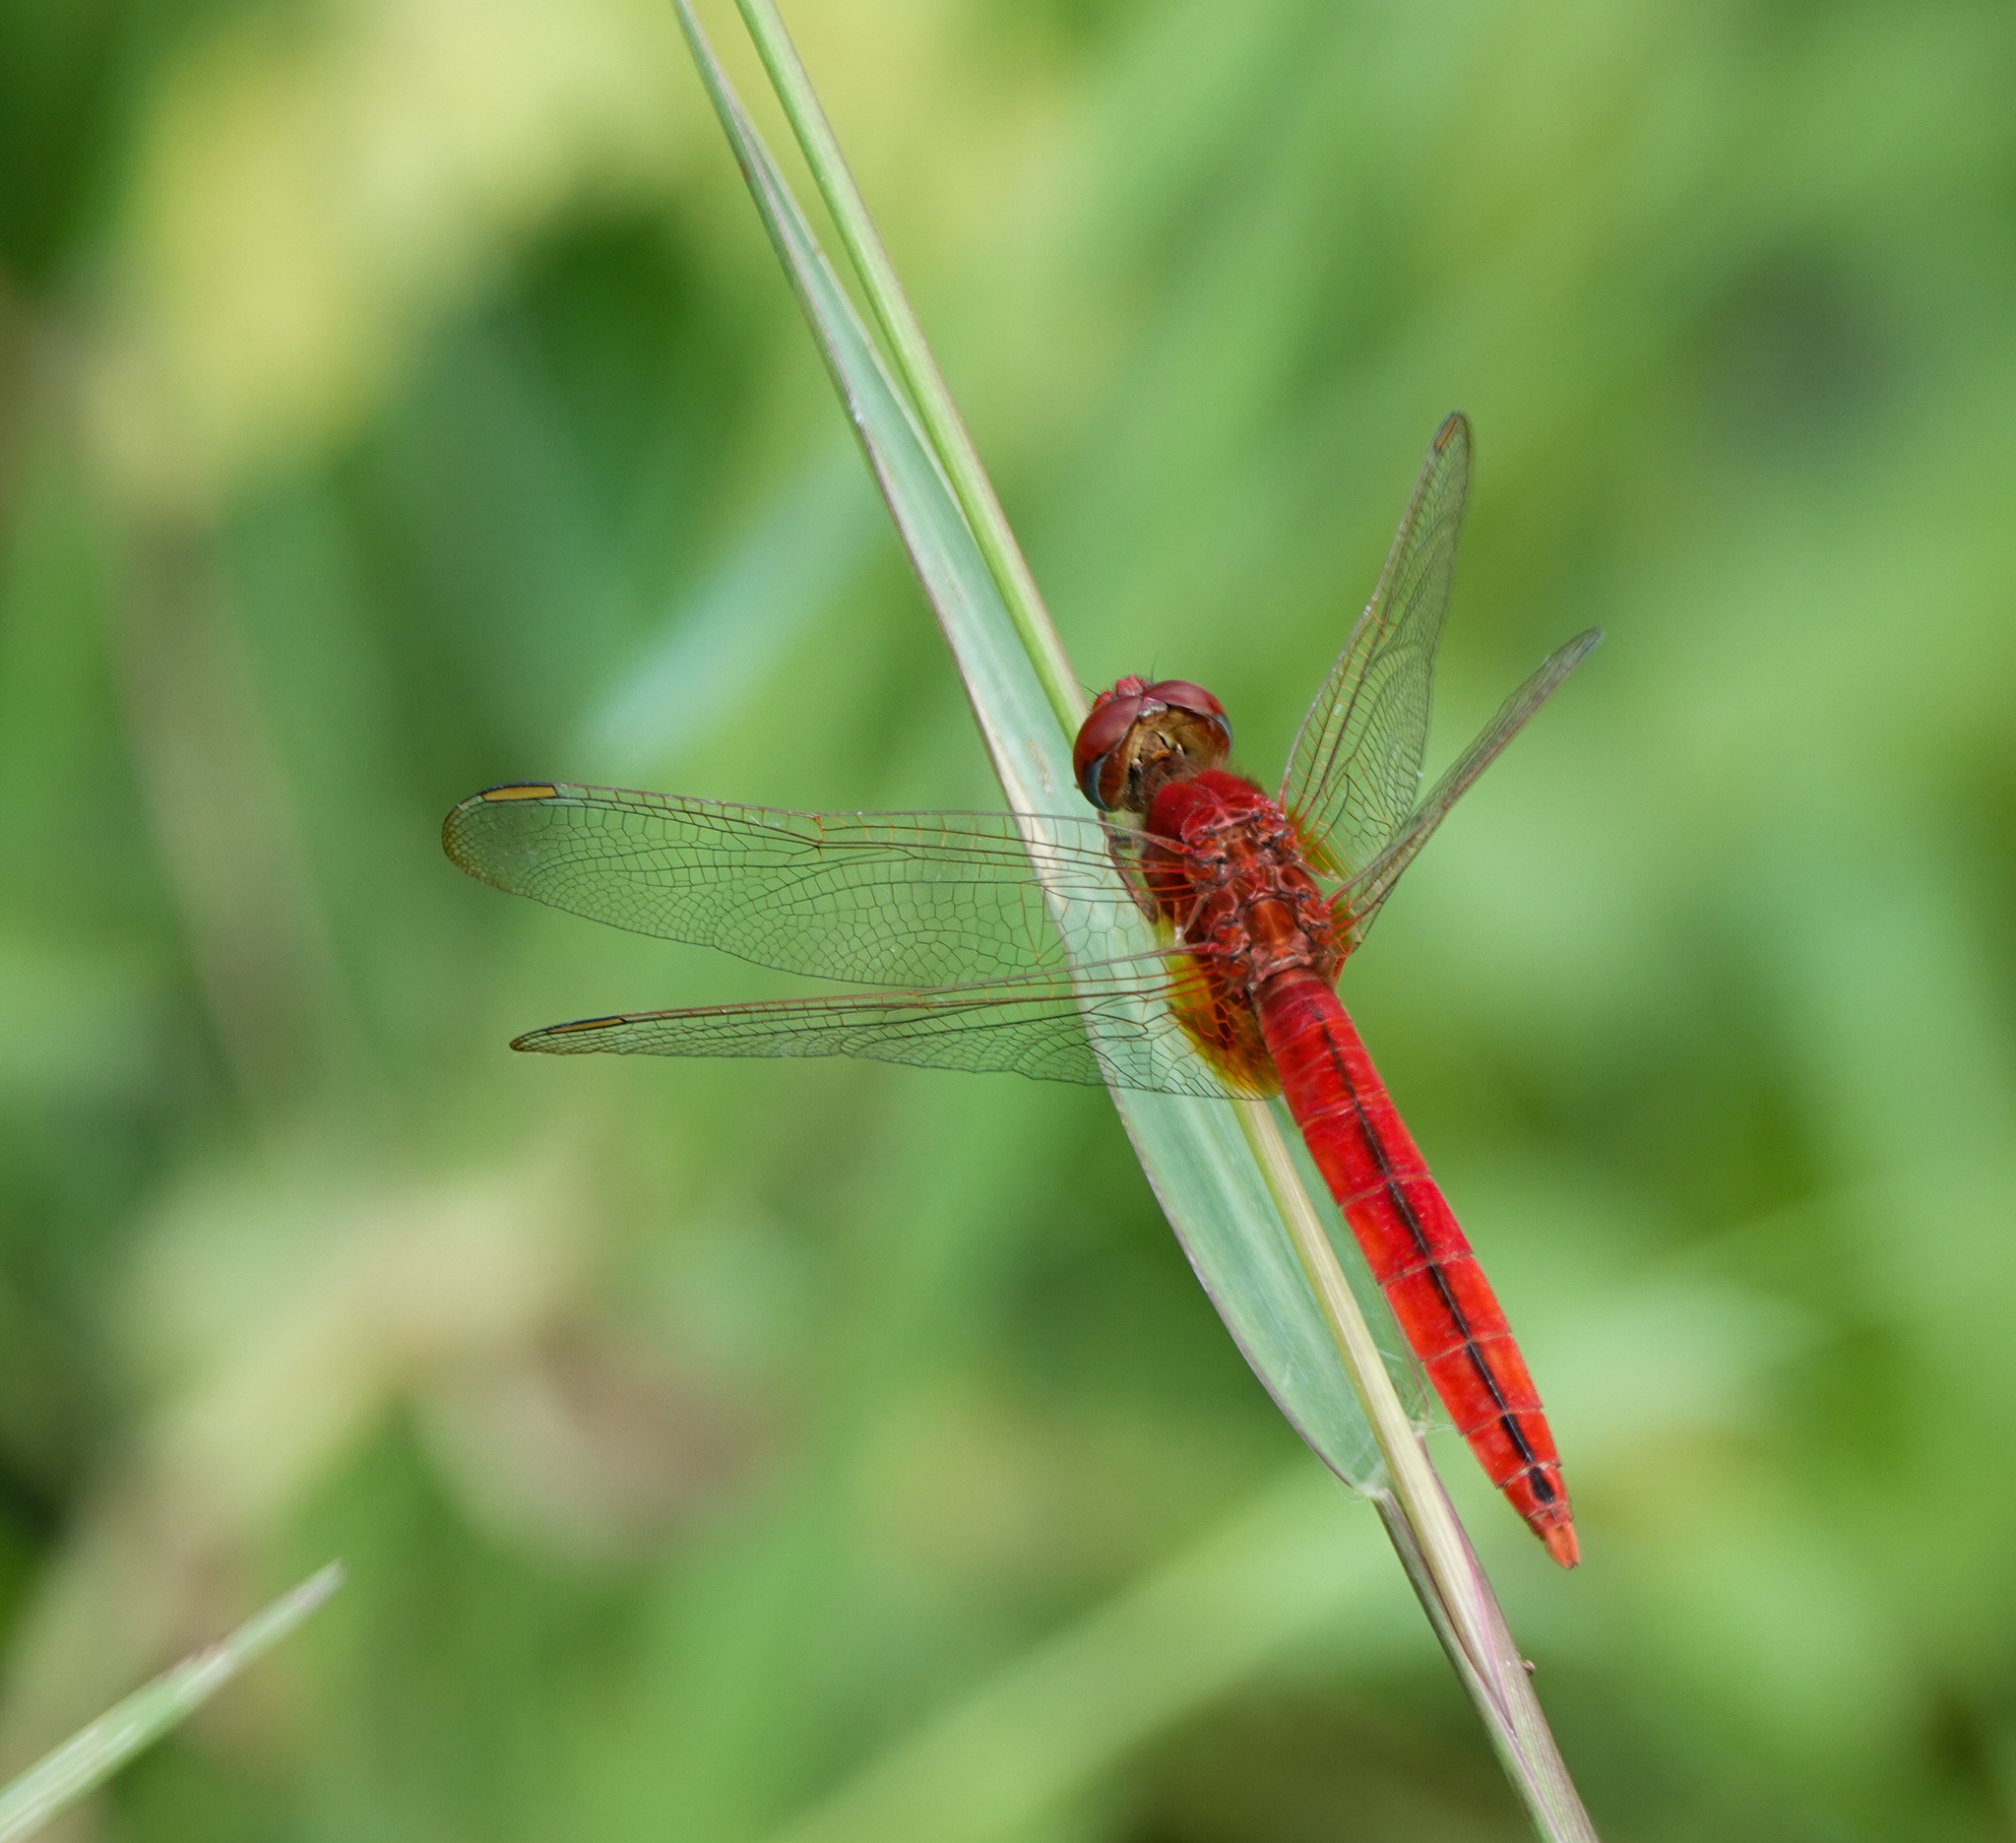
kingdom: Animalia
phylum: Arthropoda
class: Insecta
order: Odonata
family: Libellulidae
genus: Crocothemis
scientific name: Crocothemis servilia
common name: Scarlet skimmer
